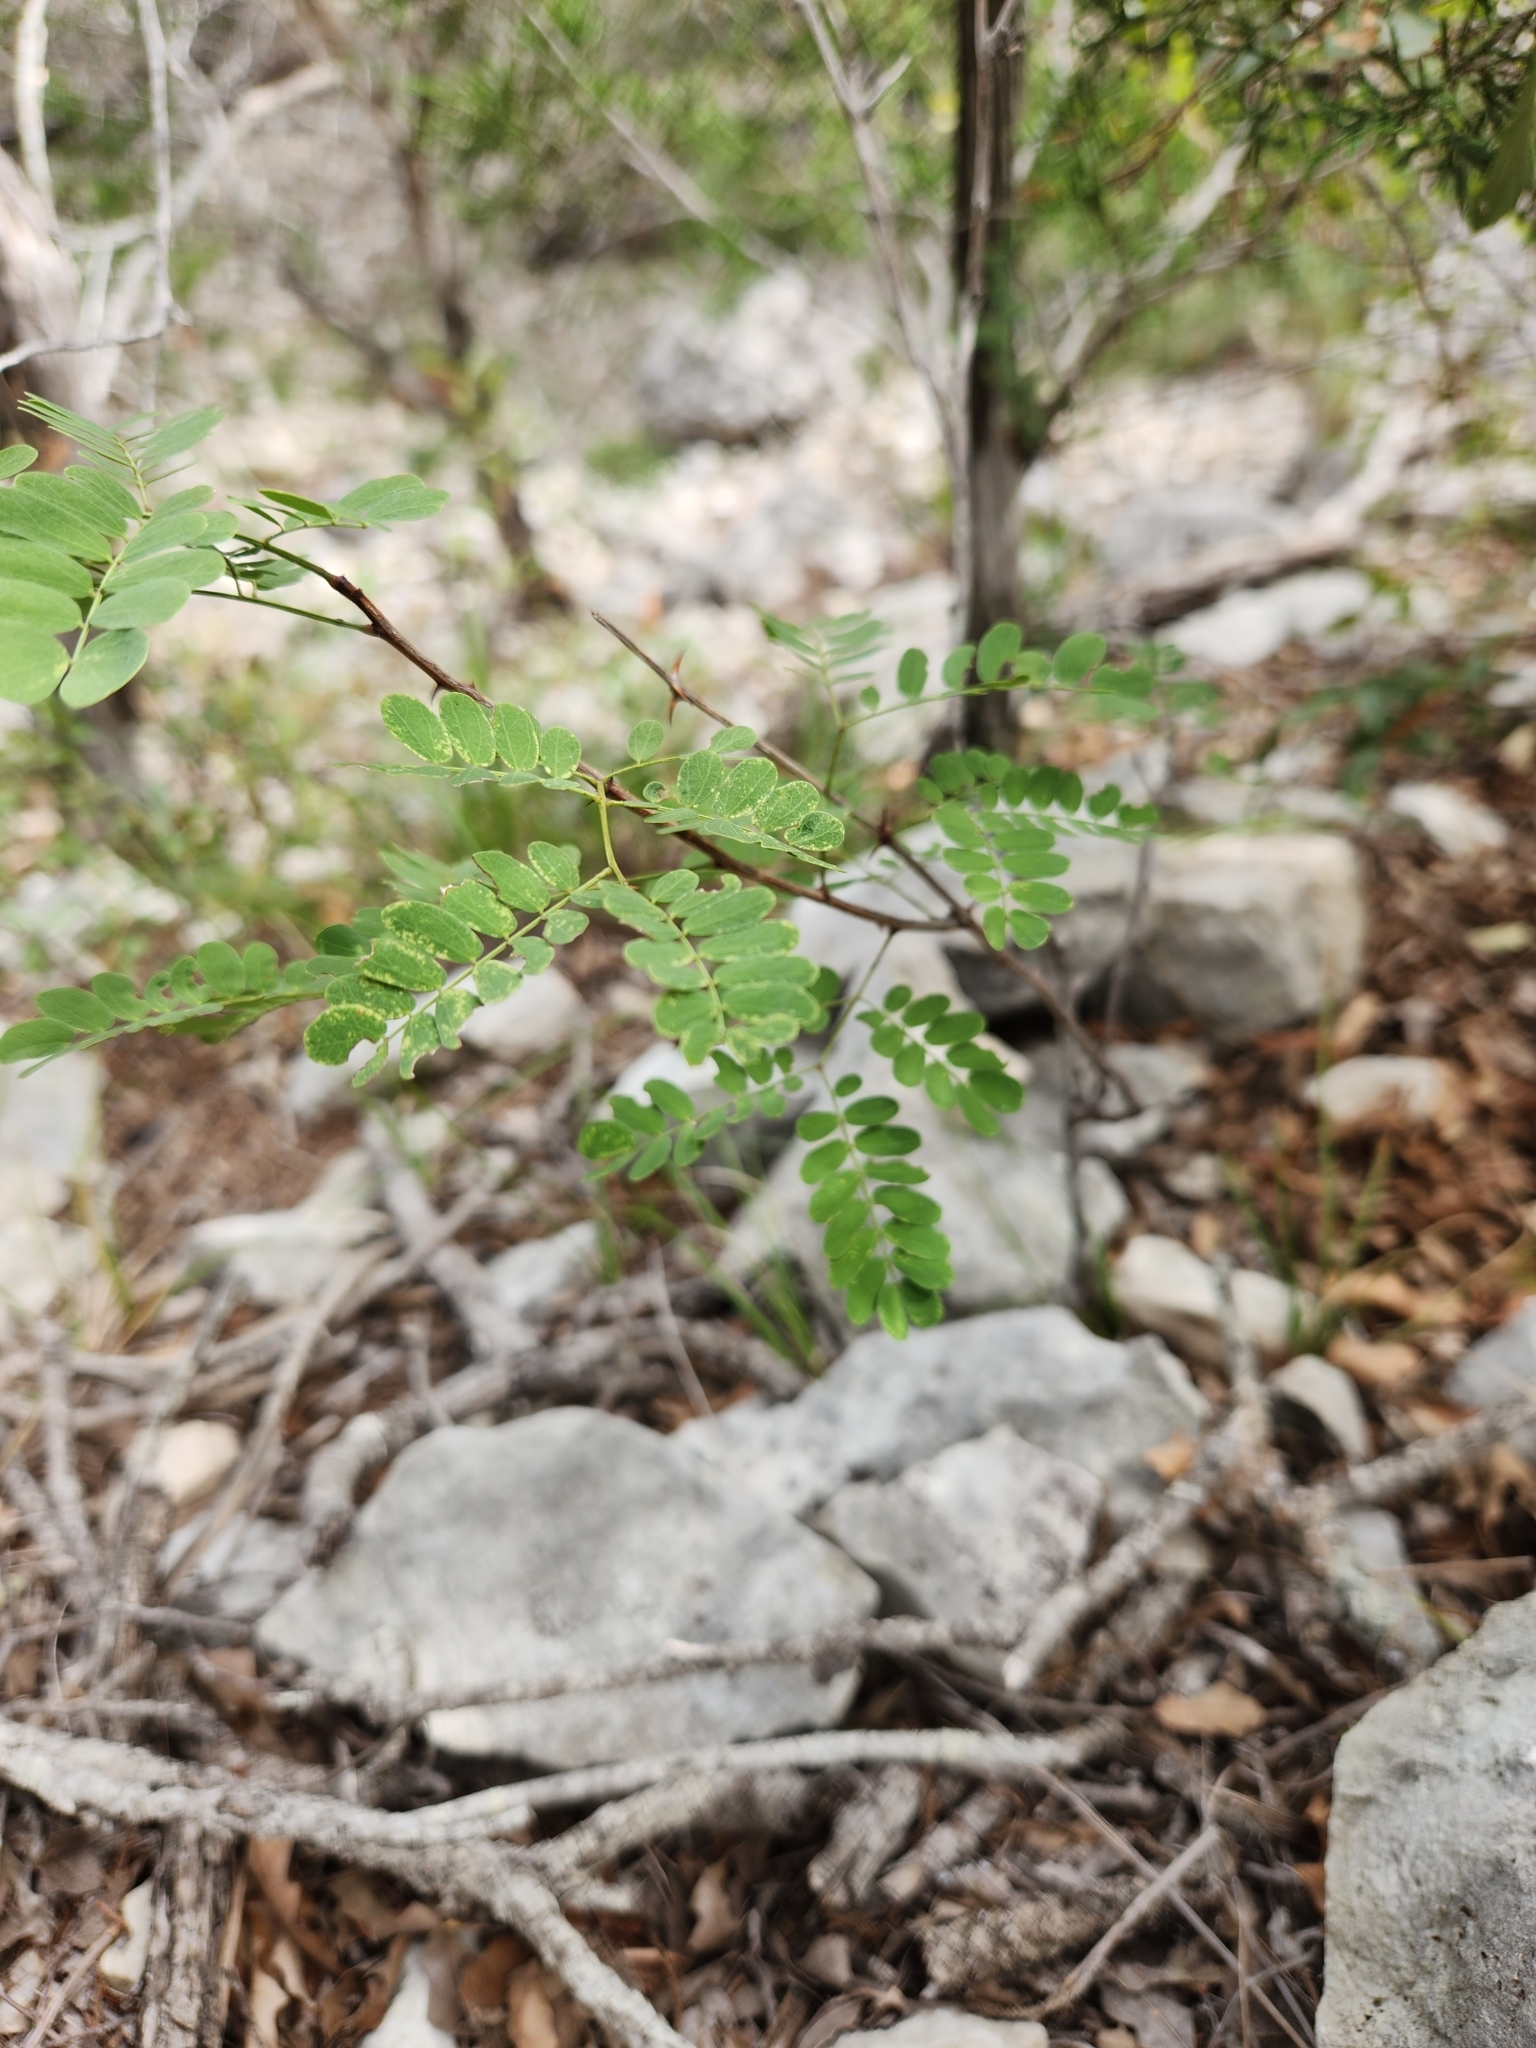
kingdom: Plantae
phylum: Tracheophyta
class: Magnoliopsida
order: Fabales
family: Fabaceae
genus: Senegalia
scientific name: Senegalia roemeriana
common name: Roemer's acacia
